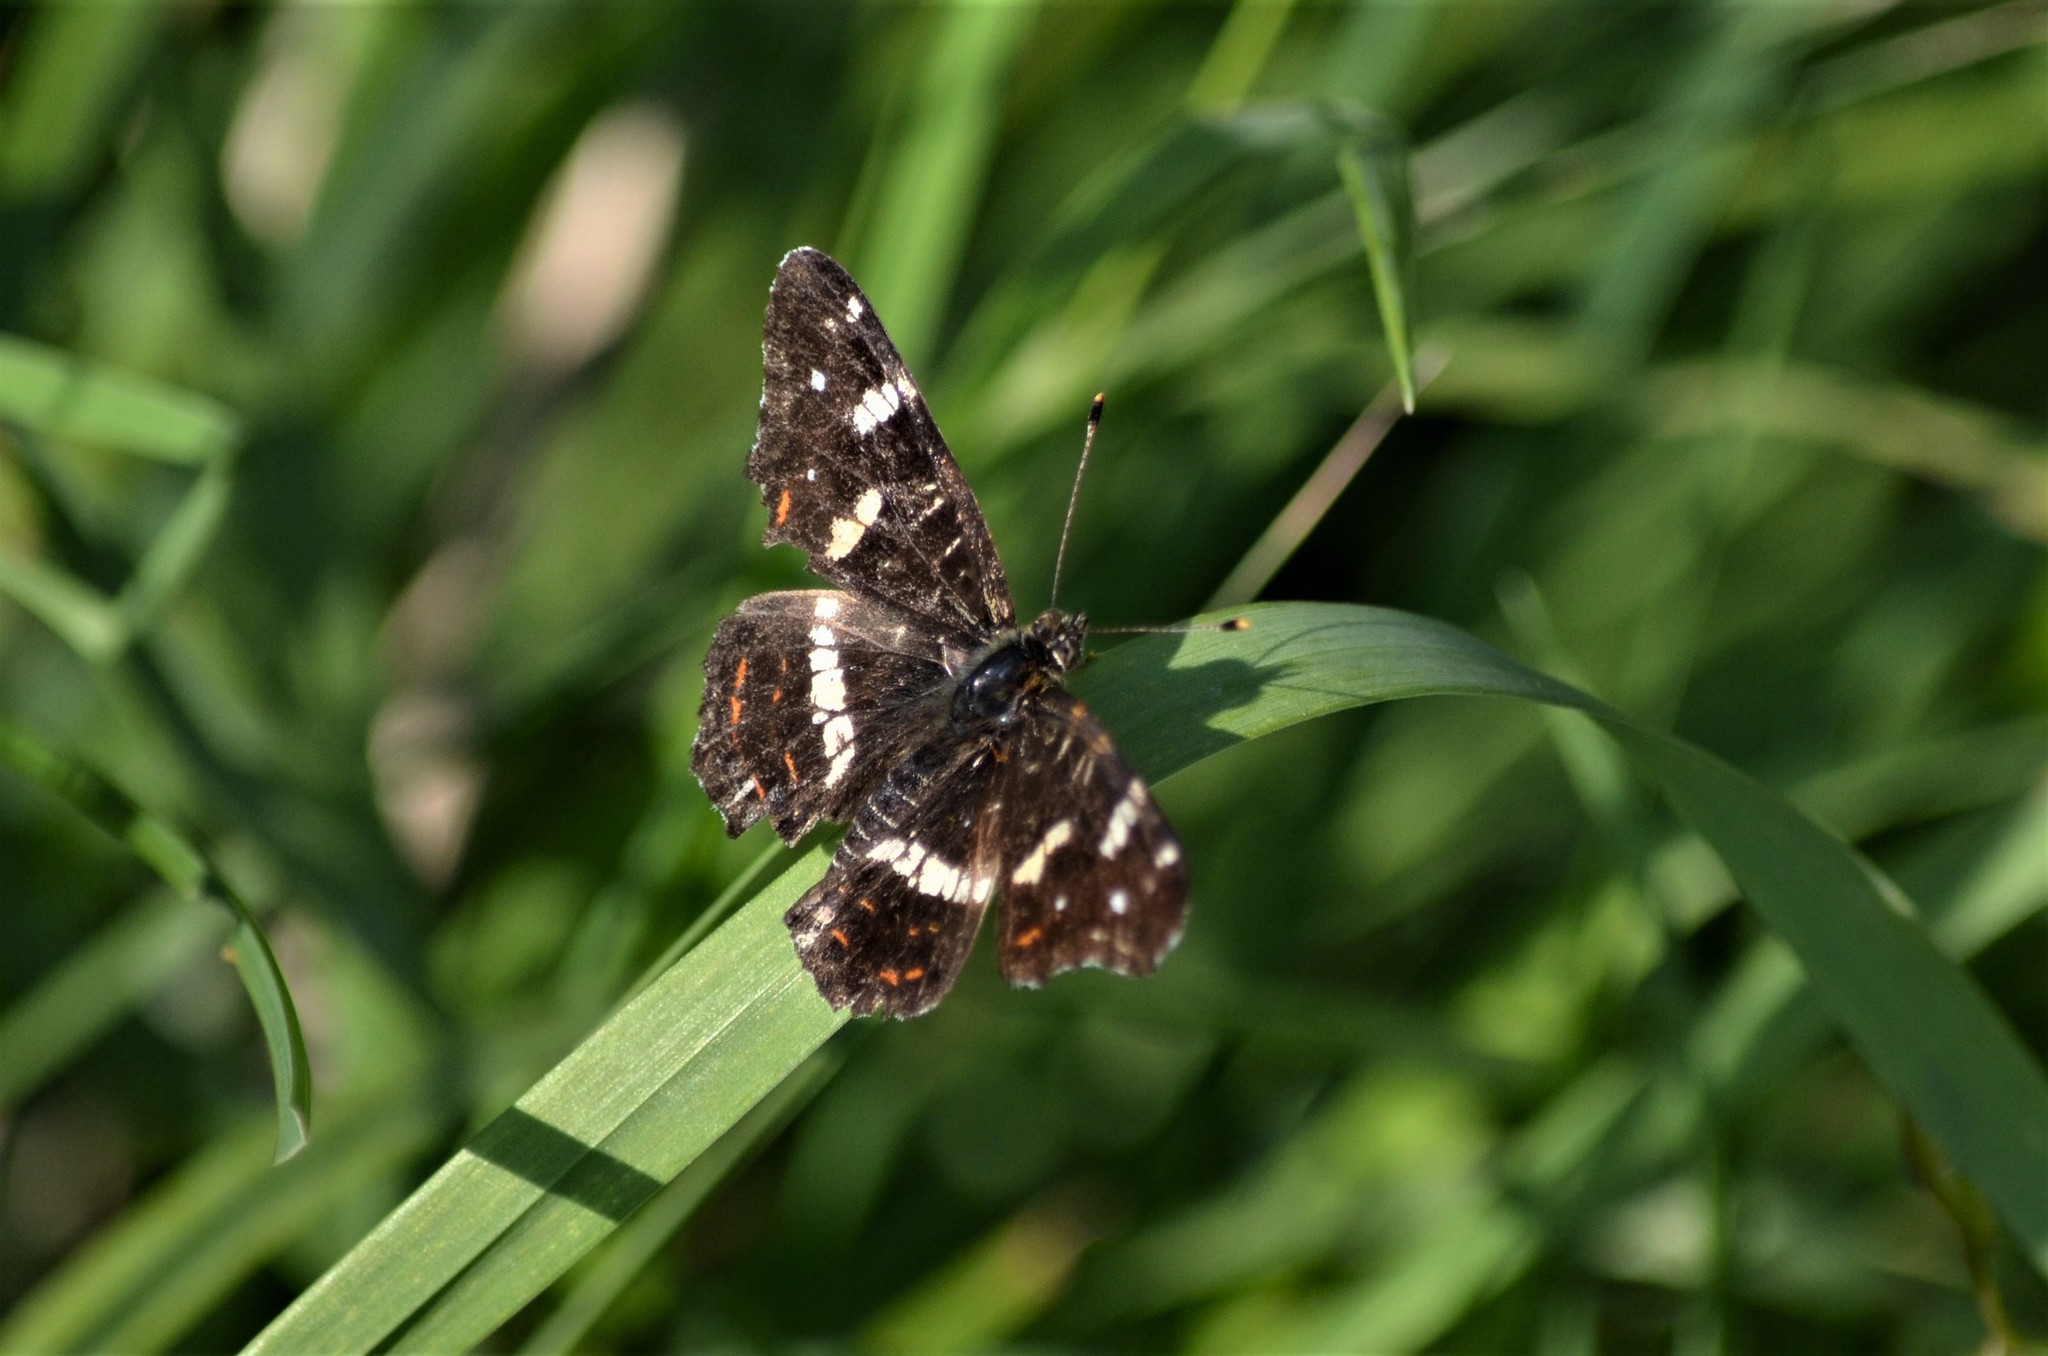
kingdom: Animalia
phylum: Arthropoda
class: Insecta
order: Lepidoptera
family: Nymphalidae
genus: Araschnia
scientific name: Araschnia levana
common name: Map butterfly
